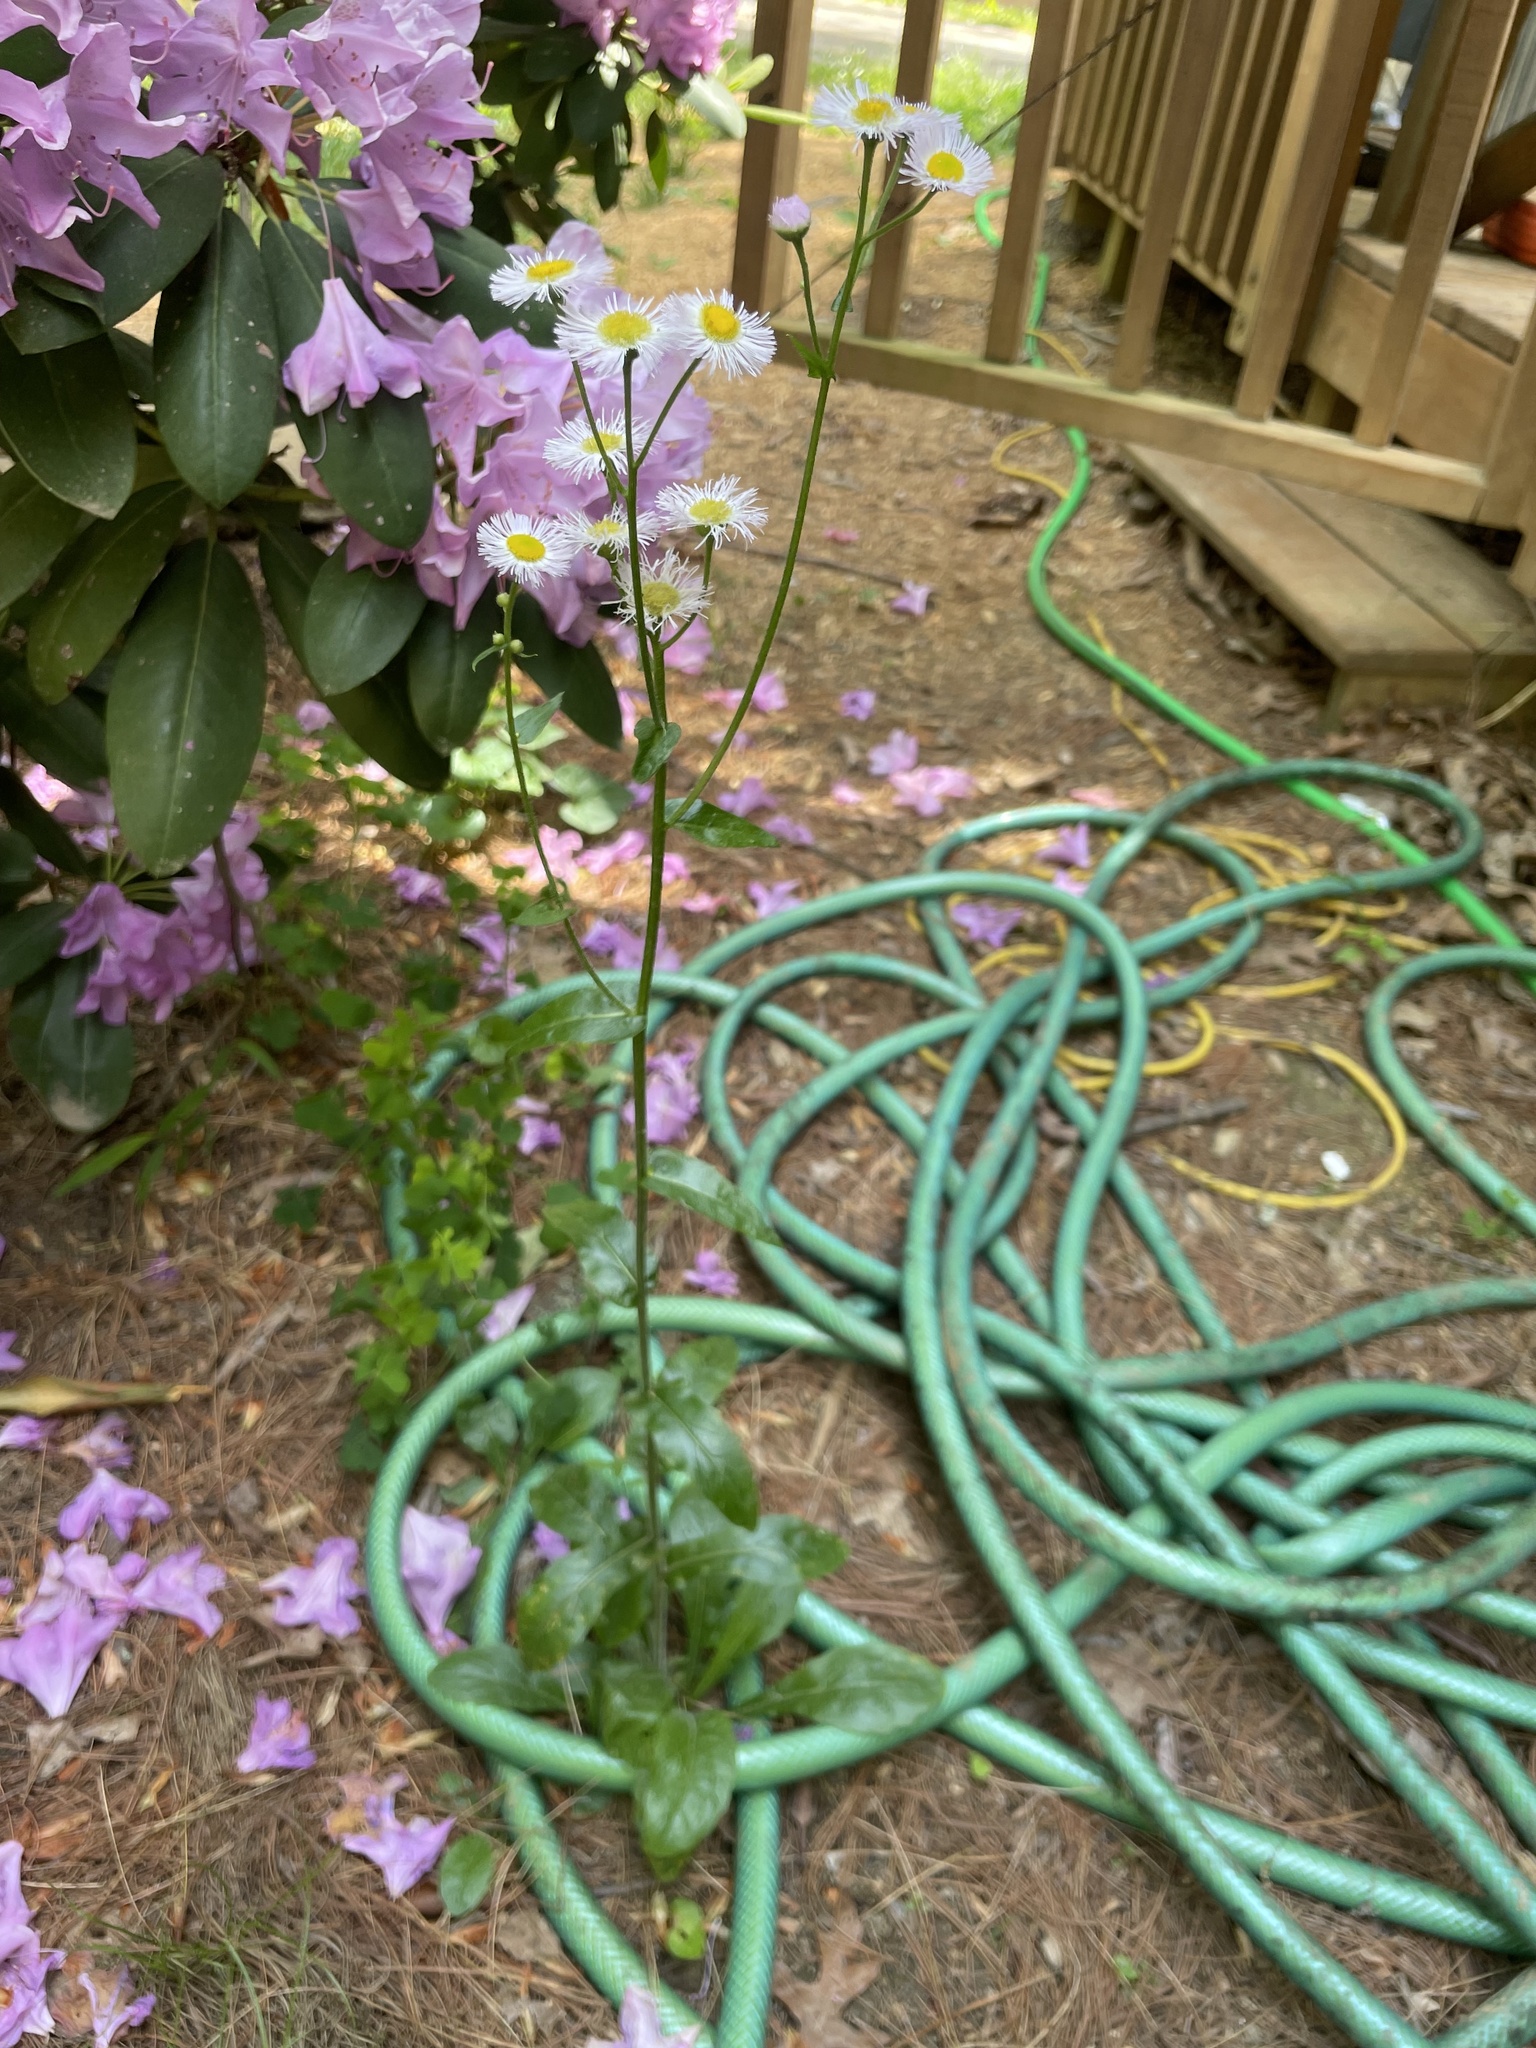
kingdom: Plantae
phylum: Tracheophyta
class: Magnoliopsida
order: Asterales
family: Asteraceae
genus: Erigeron
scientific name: Erigeron philadelphicus
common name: Robin's-plantain
